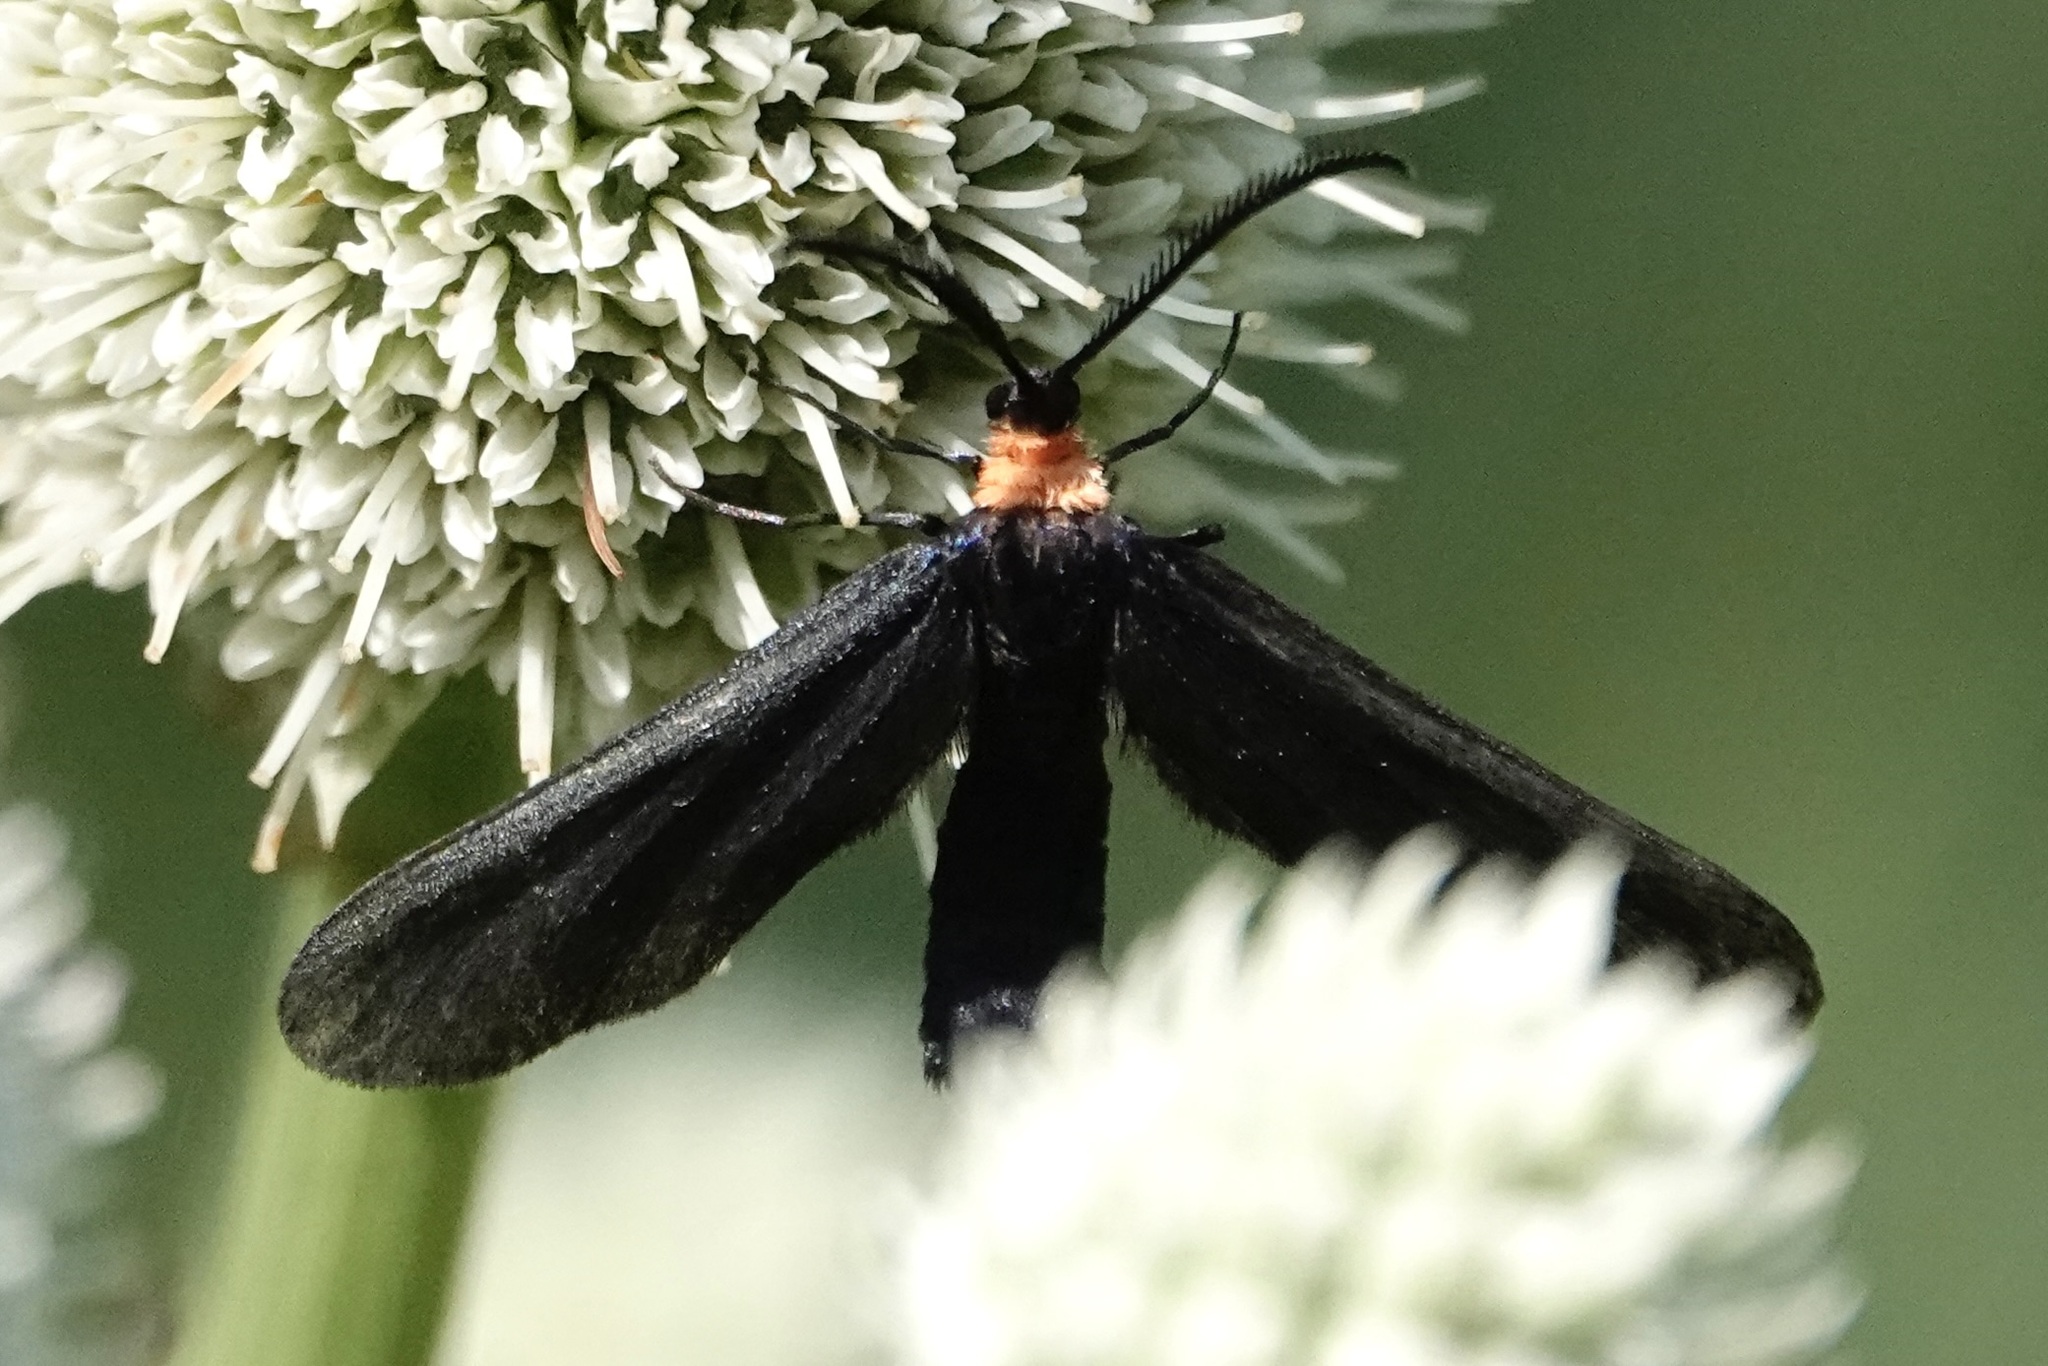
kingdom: Animalia
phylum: Arthropoda
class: Insecta
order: Lepidoptera
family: Zygaenidae
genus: Harrisina
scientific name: Harrisina americana
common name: Grapeleaf skeletonizer moth
